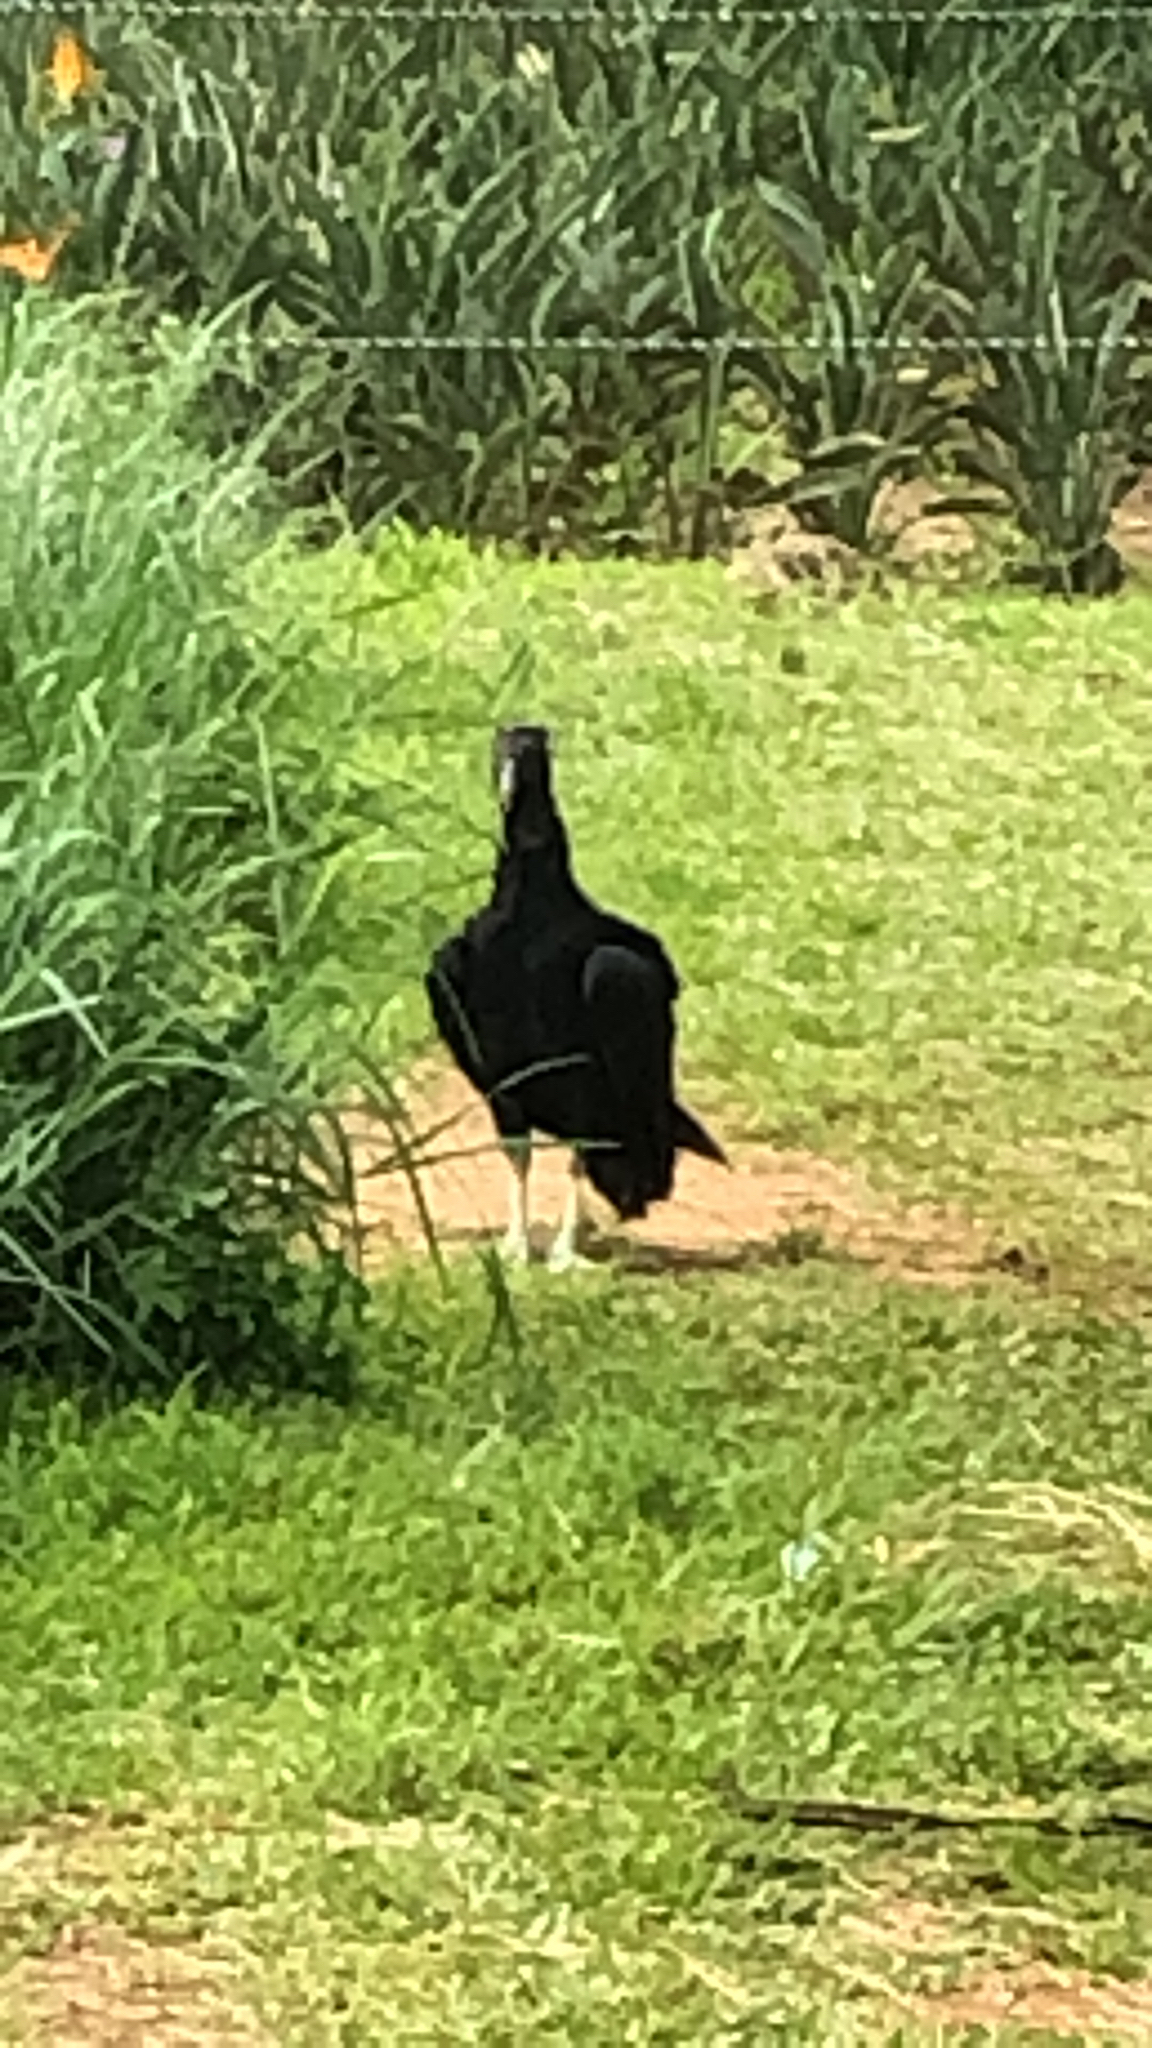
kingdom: Animalia
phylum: Chordata
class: Aves
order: Accipitriformes
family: Cathartidae
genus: Coragyps
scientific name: Coragyps atratus
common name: Black vulture
